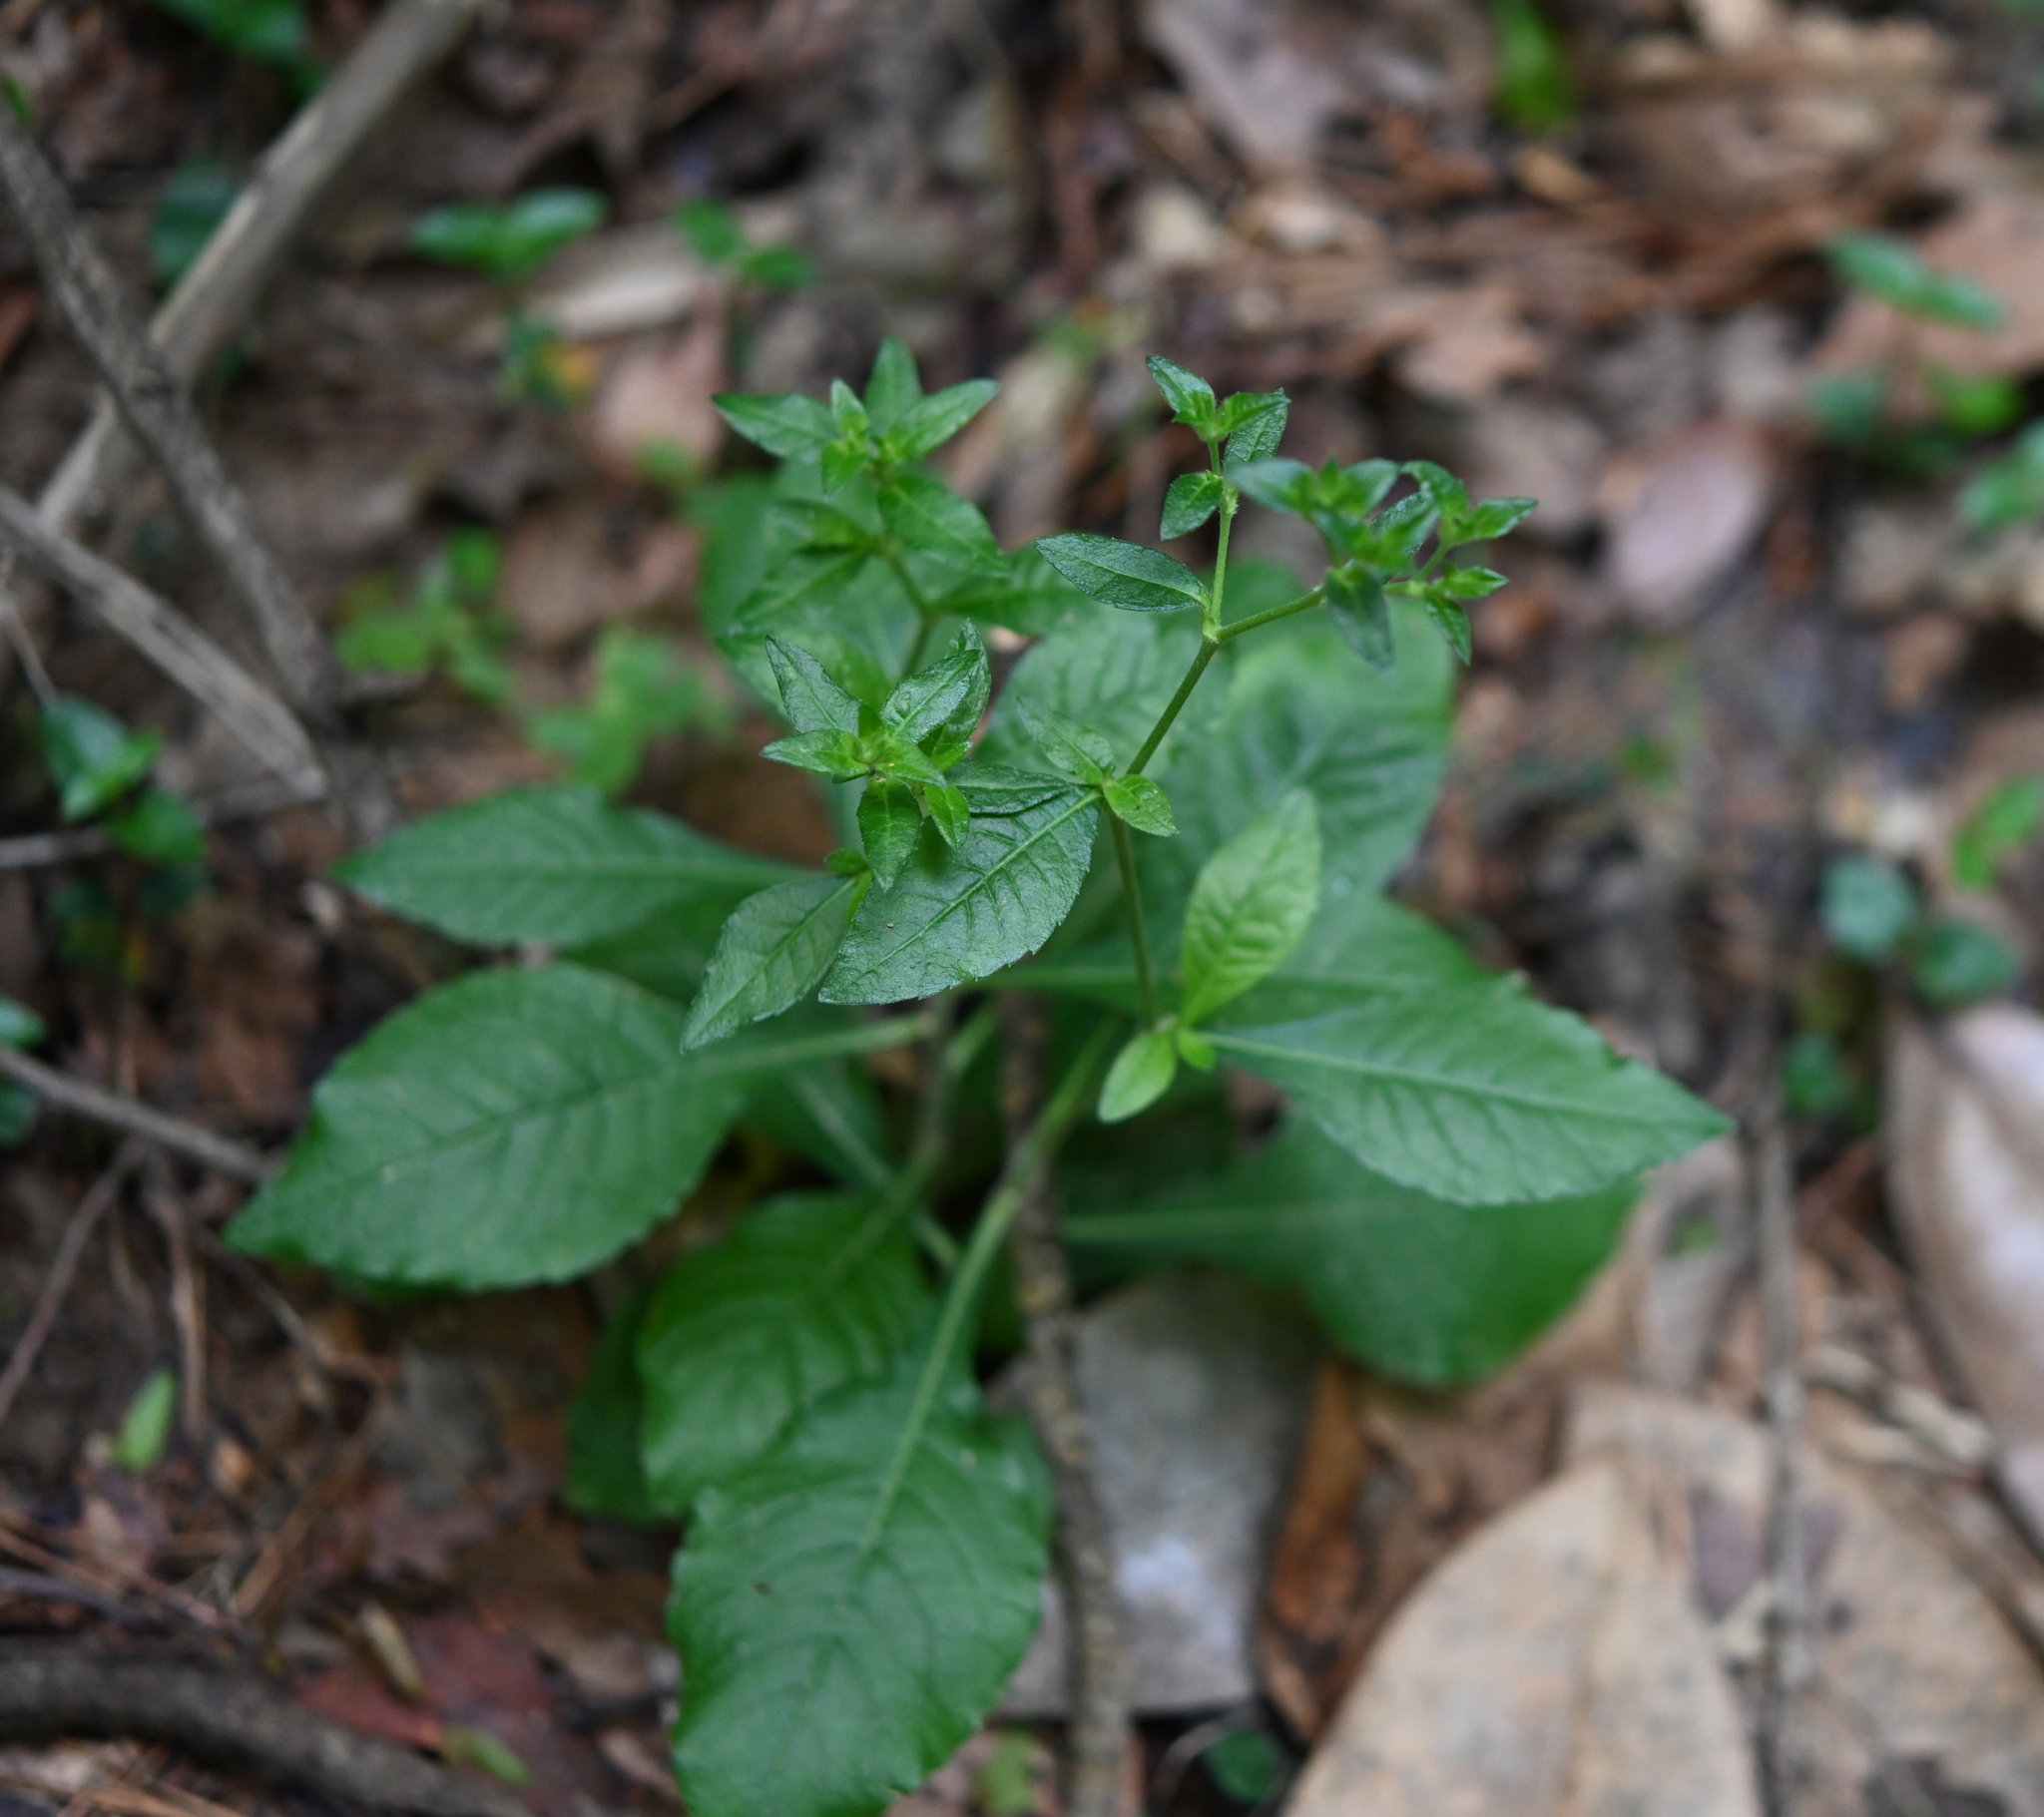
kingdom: Plantae
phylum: Tracheophyta
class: Magnoliopsida
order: Asterales
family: Asteraceae
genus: Elephantopus
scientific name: Elephantopus carolinianus
